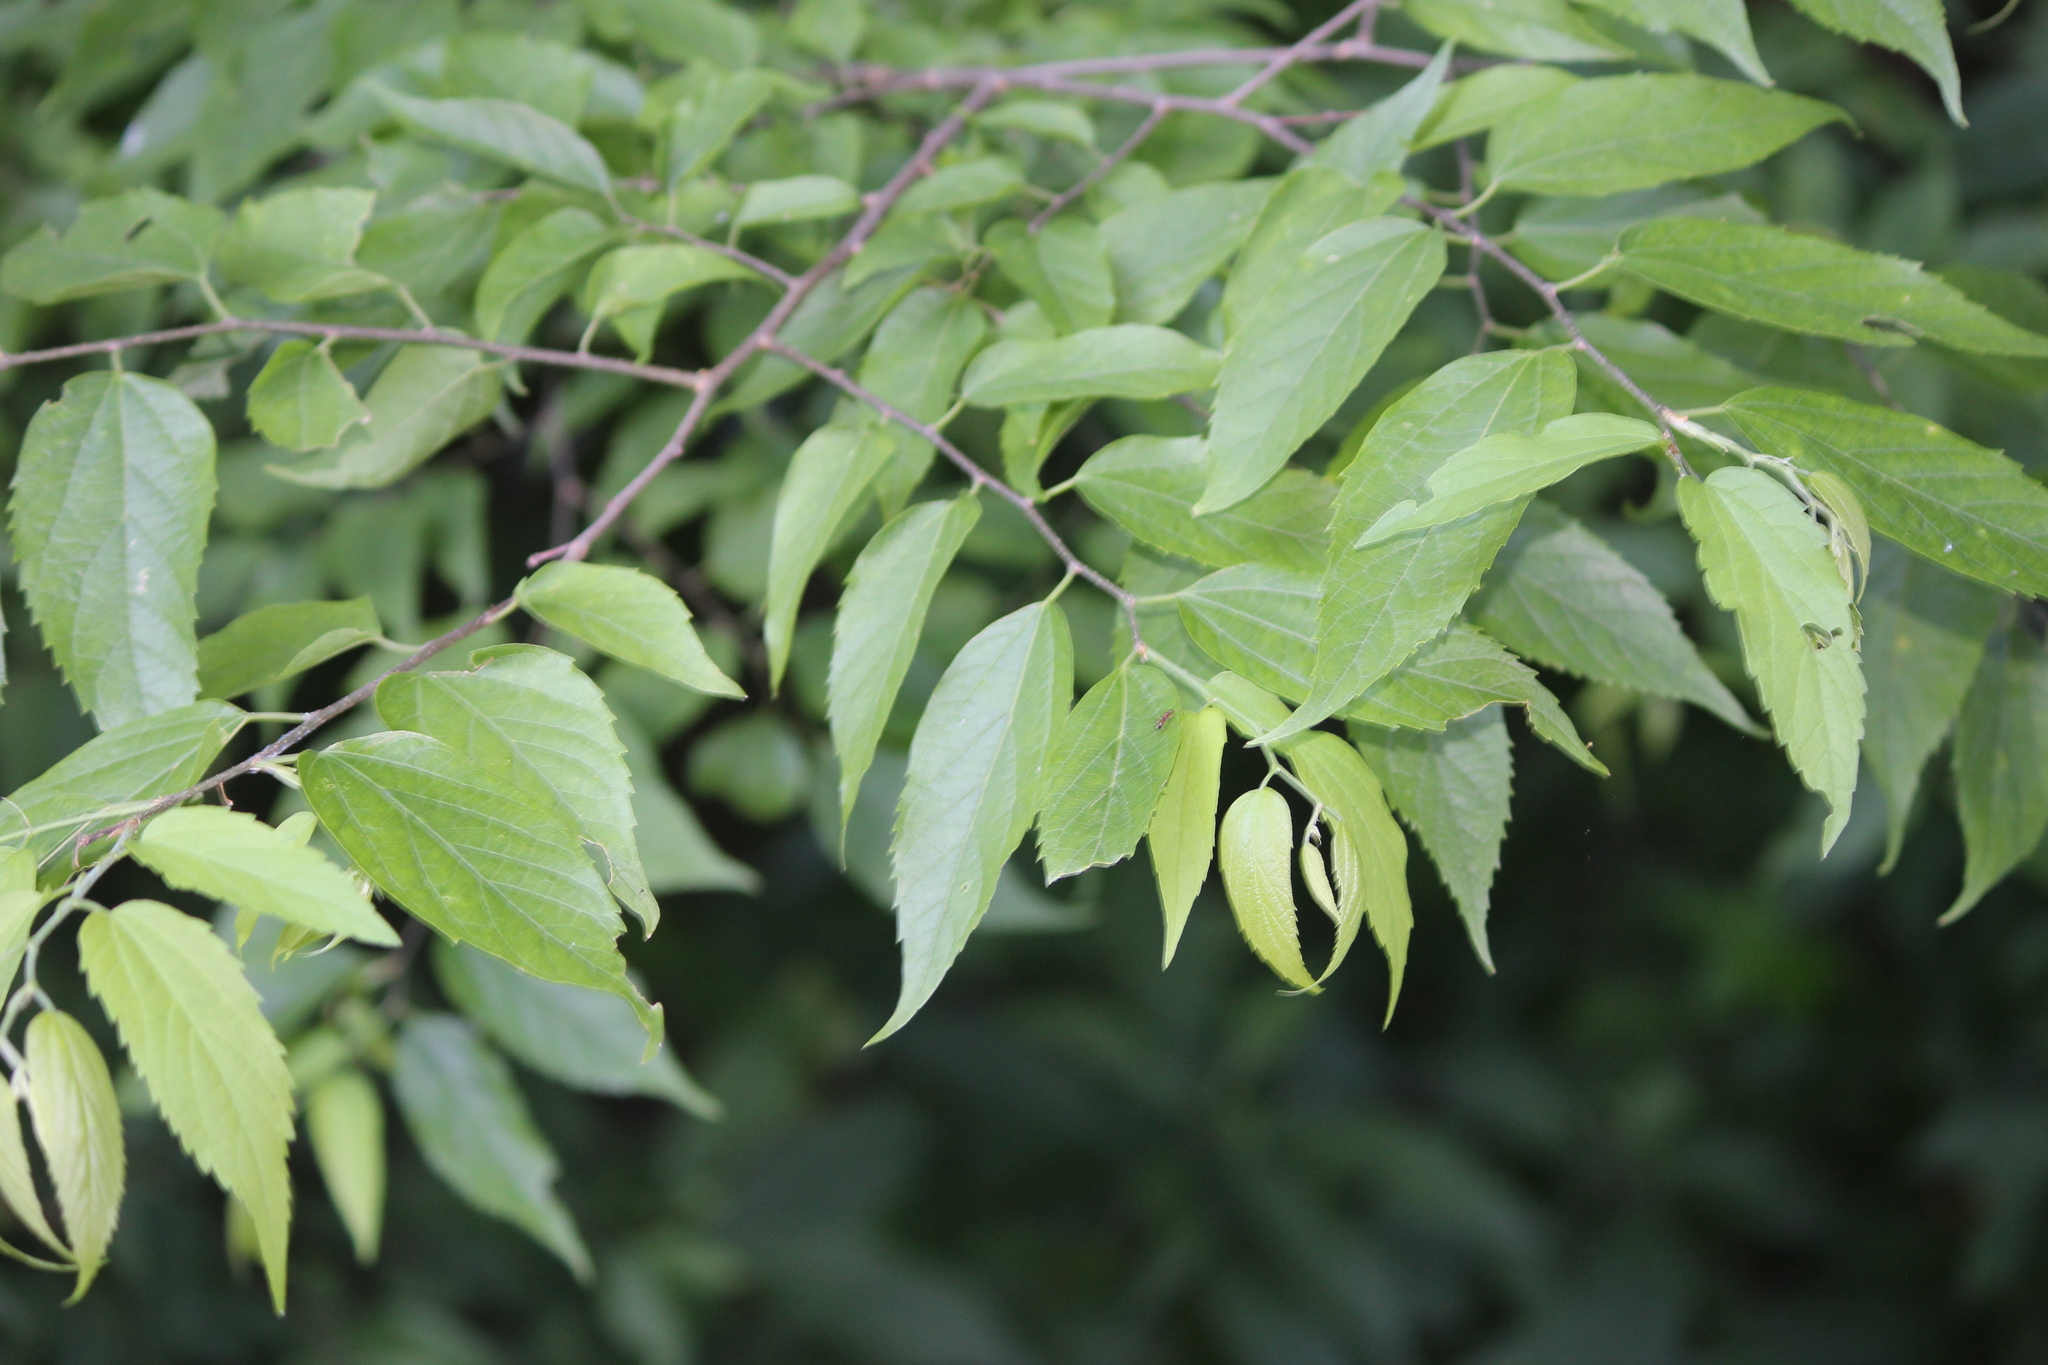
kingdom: Plantae
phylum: Tracheophyta
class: Magnoliopsida
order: Rosales
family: Cannabaceae
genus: Celtis
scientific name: Celtis laevigata
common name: Sugarberry
